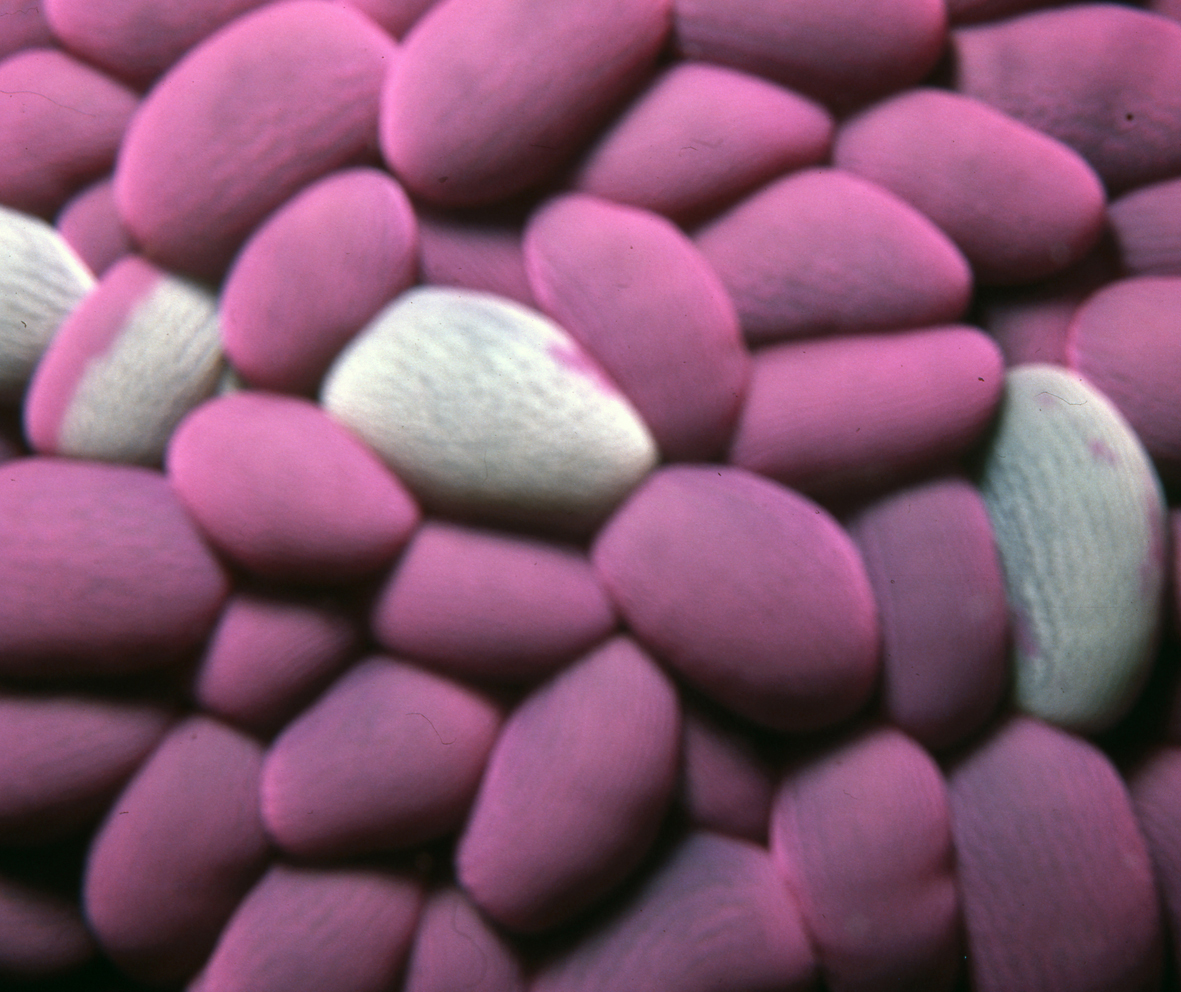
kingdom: Animalia
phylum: Cnidaria
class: Anthozoa
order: Actiniaria
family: Actiniidae
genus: Phlyctenactis
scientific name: Phlyctenactis tuberculosa
